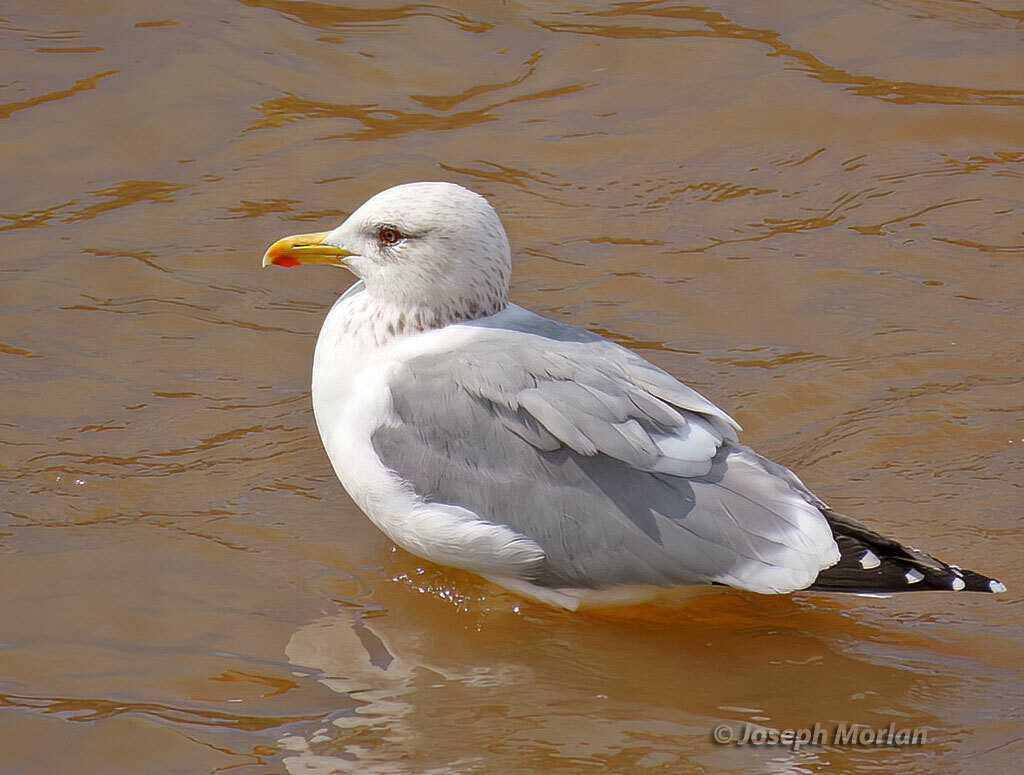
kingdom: Animalia
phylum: Chordata
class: Aves
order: Charadriiformes
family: Laridae
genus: Larus
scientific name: Larus vegae
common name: Vega gull
